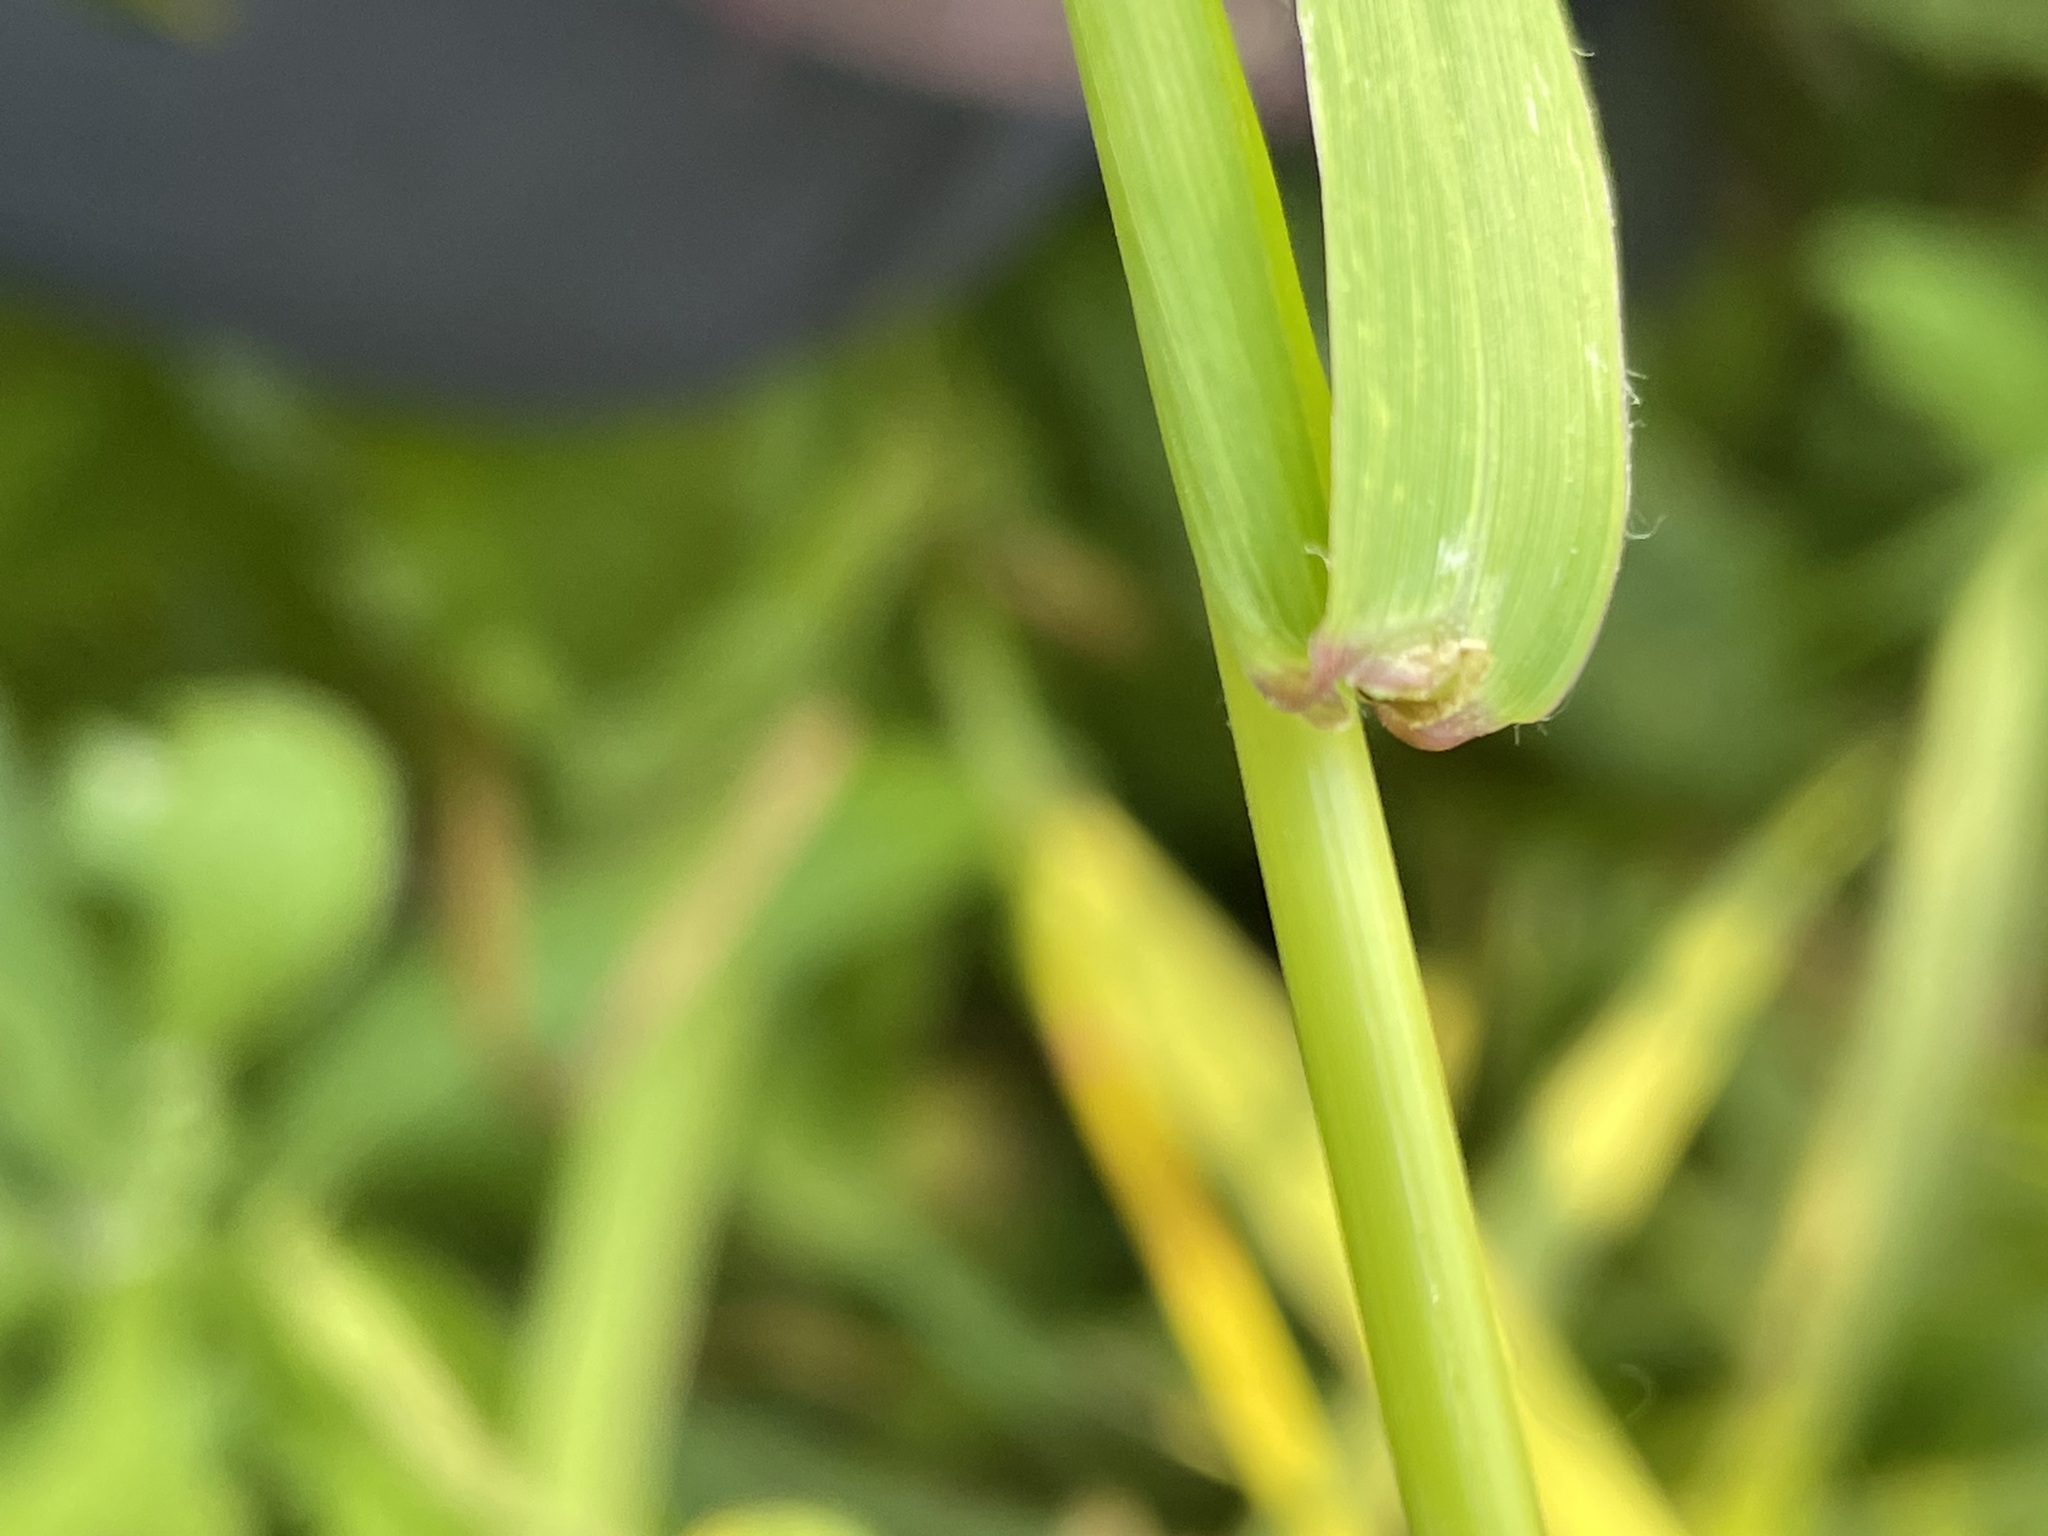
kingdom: Plantae
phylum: Tracheophyta
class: Liliopsida
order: Poales
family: Poaceae
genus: Bromus
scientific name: Bromus inermis
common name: Smooth brome
